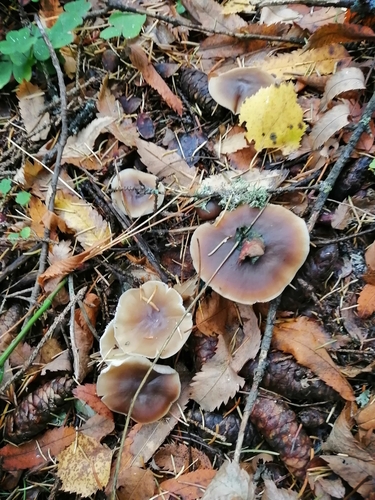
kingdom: Fungi
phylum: Basidiomycota
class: Agaricomycetes
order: Agaricales
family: Omphalotaceae
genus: Rhodocollybia
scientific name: Rhodocollybia butyracea
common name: Butter cap
